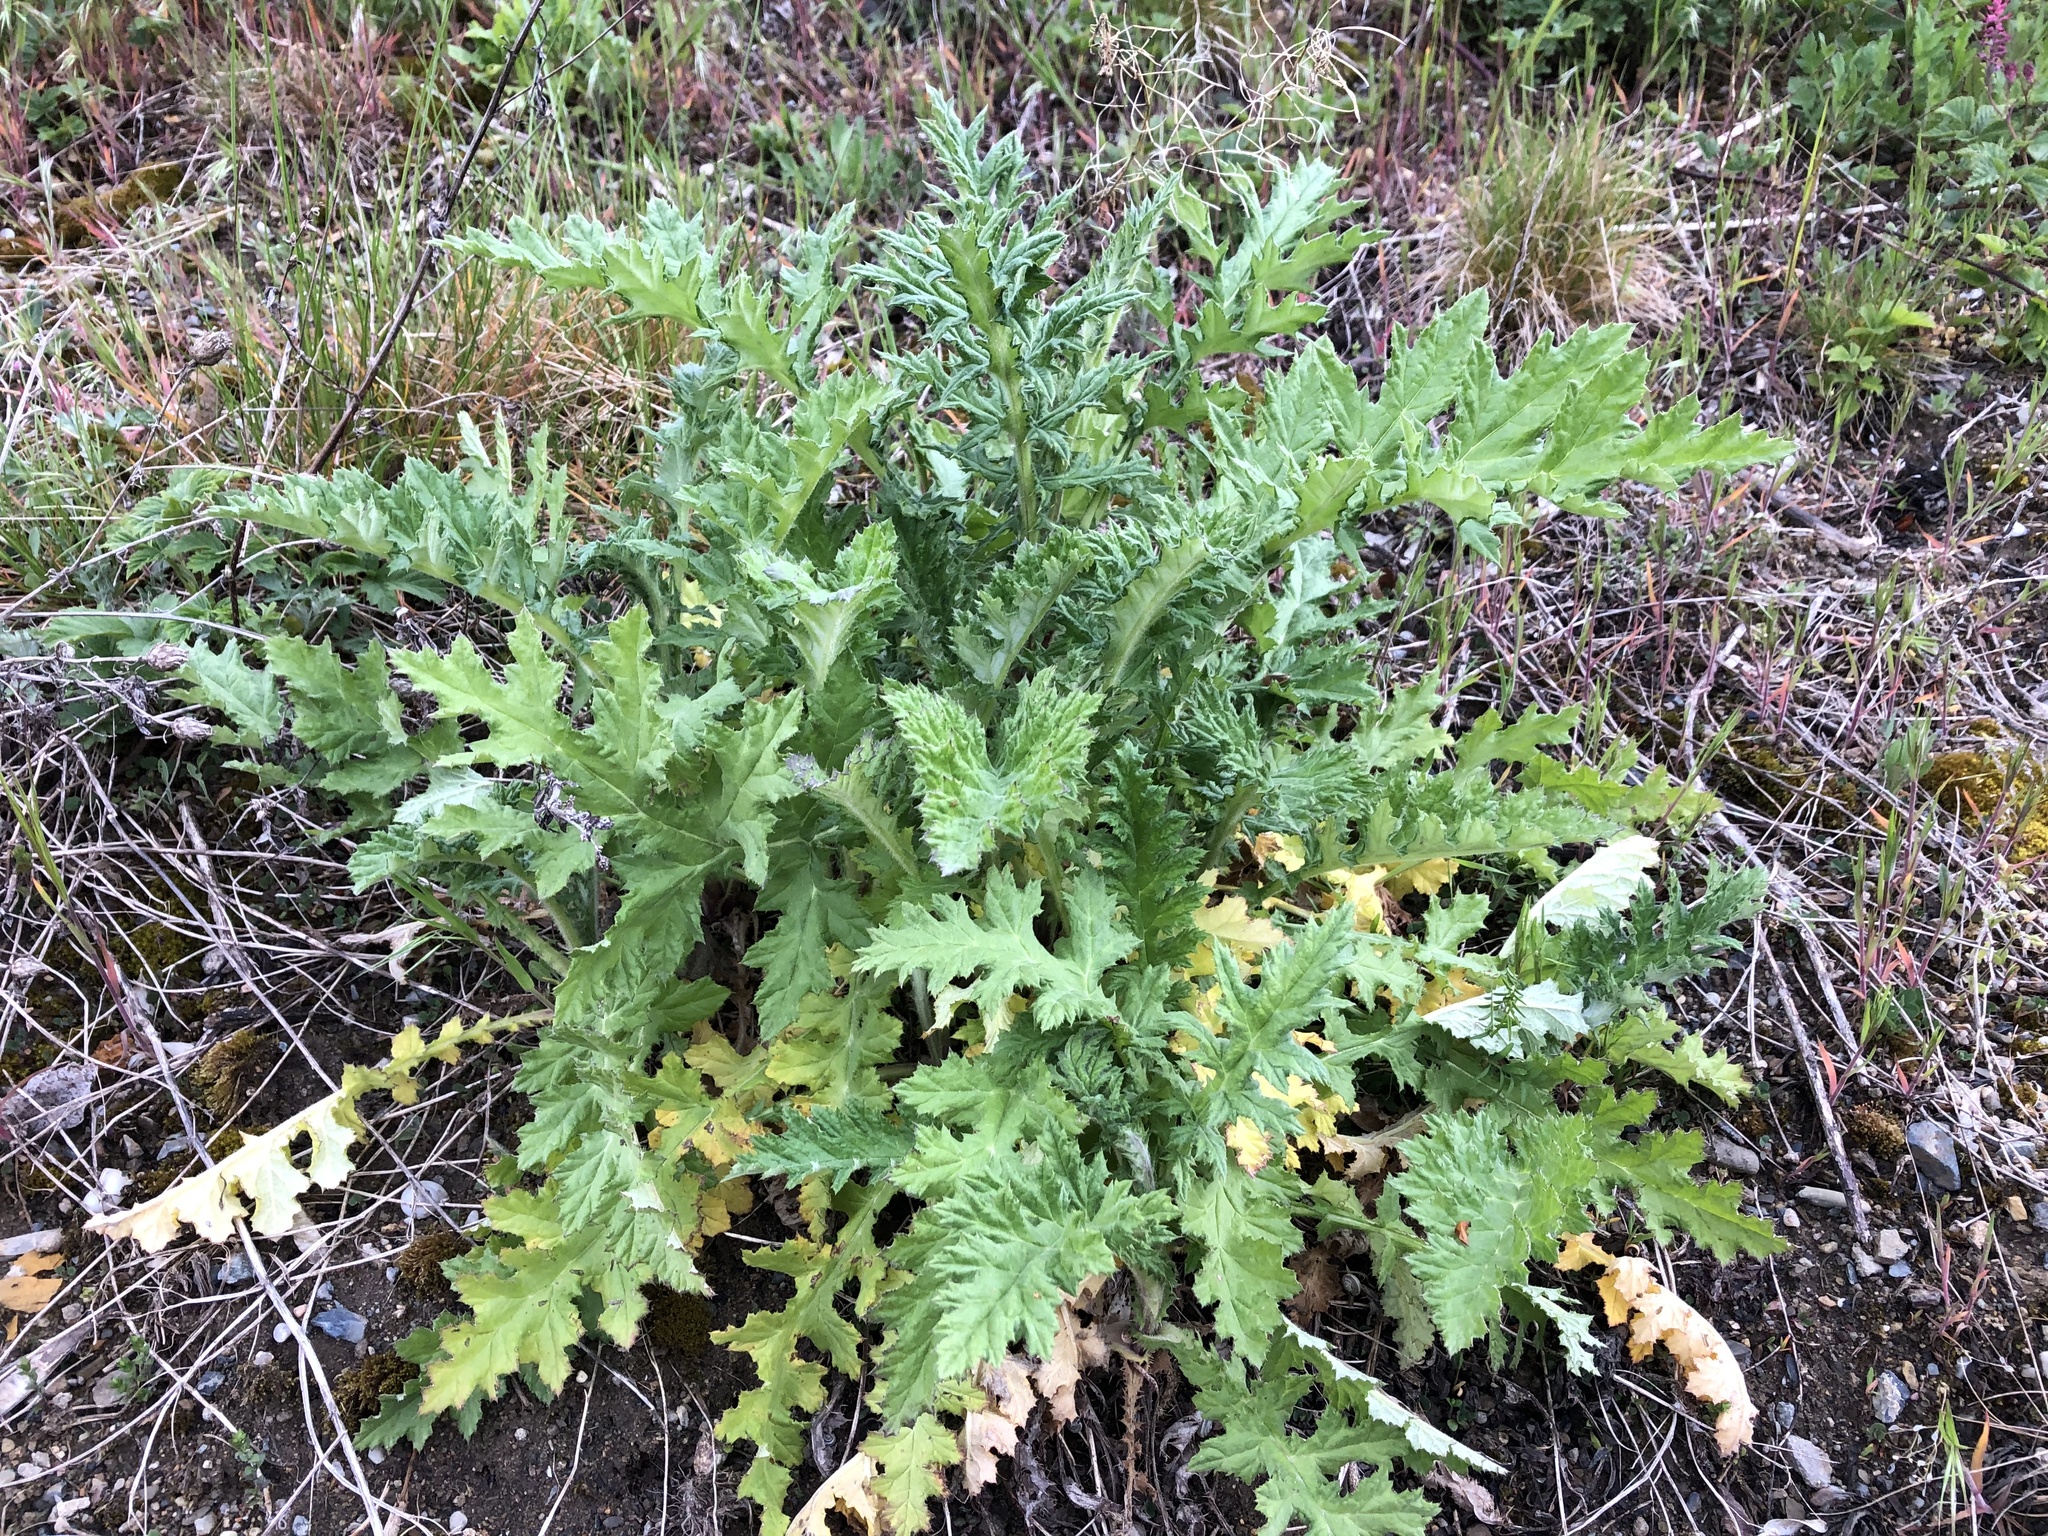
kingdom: Plantae
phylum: Tracheophyta
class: Magnoliopsida
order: Asterales
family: Asteraceae
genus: Echinops
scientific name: Echinops sphaerocephalus
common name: Glandular globe-thistle
